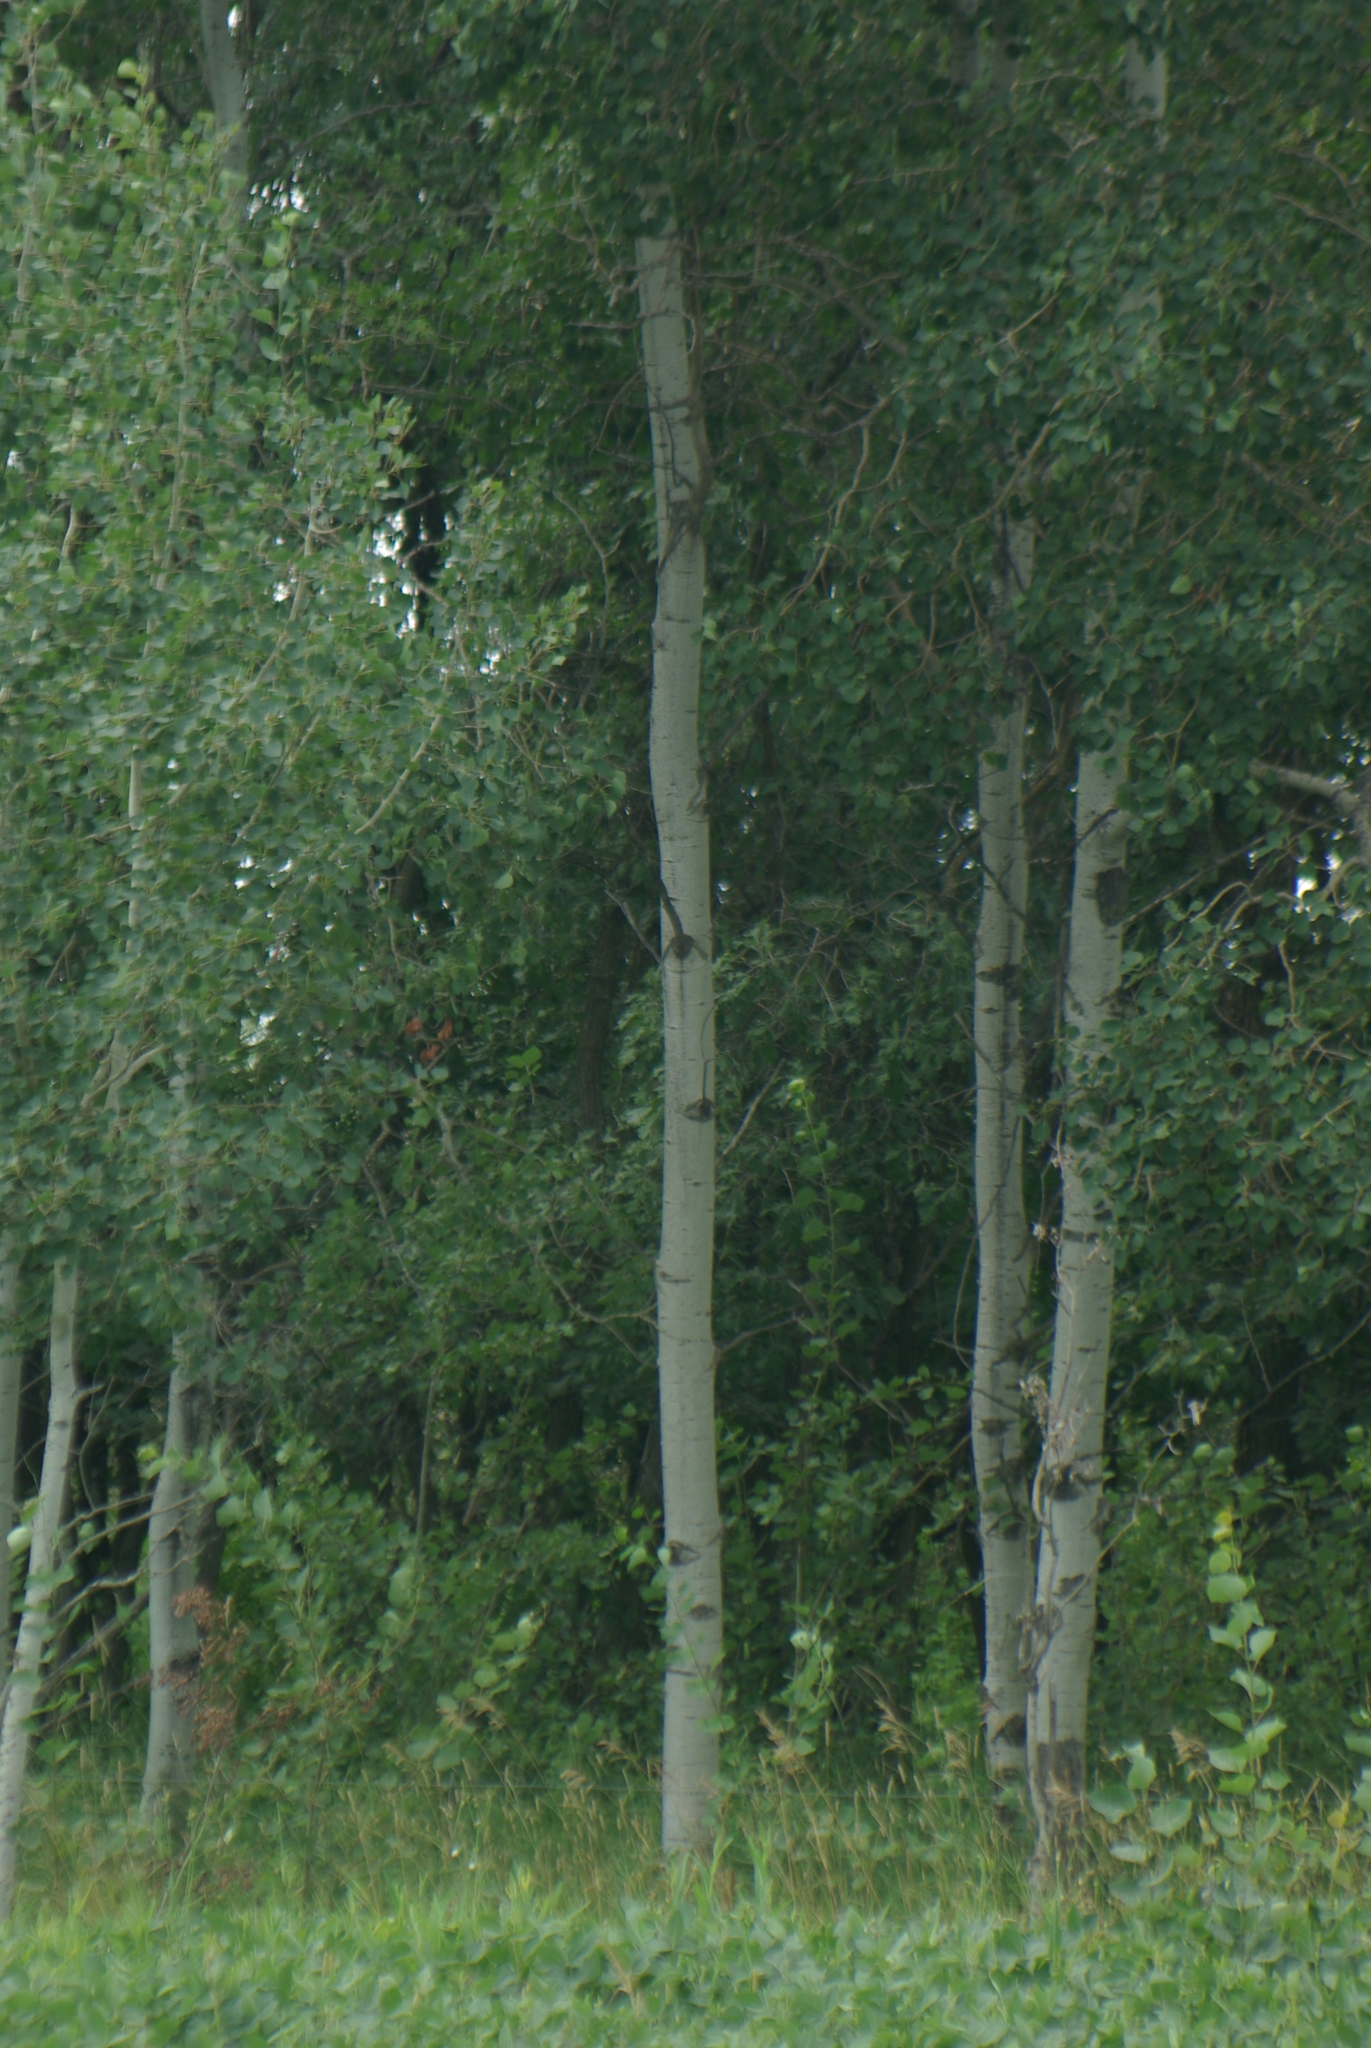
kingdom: Plantae
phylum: Tracheophyta
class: Magnoliopsida
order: Malpighiales
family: Salicaceae
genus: Populus
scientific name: Populus tremuloides
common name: Quaking aspen
